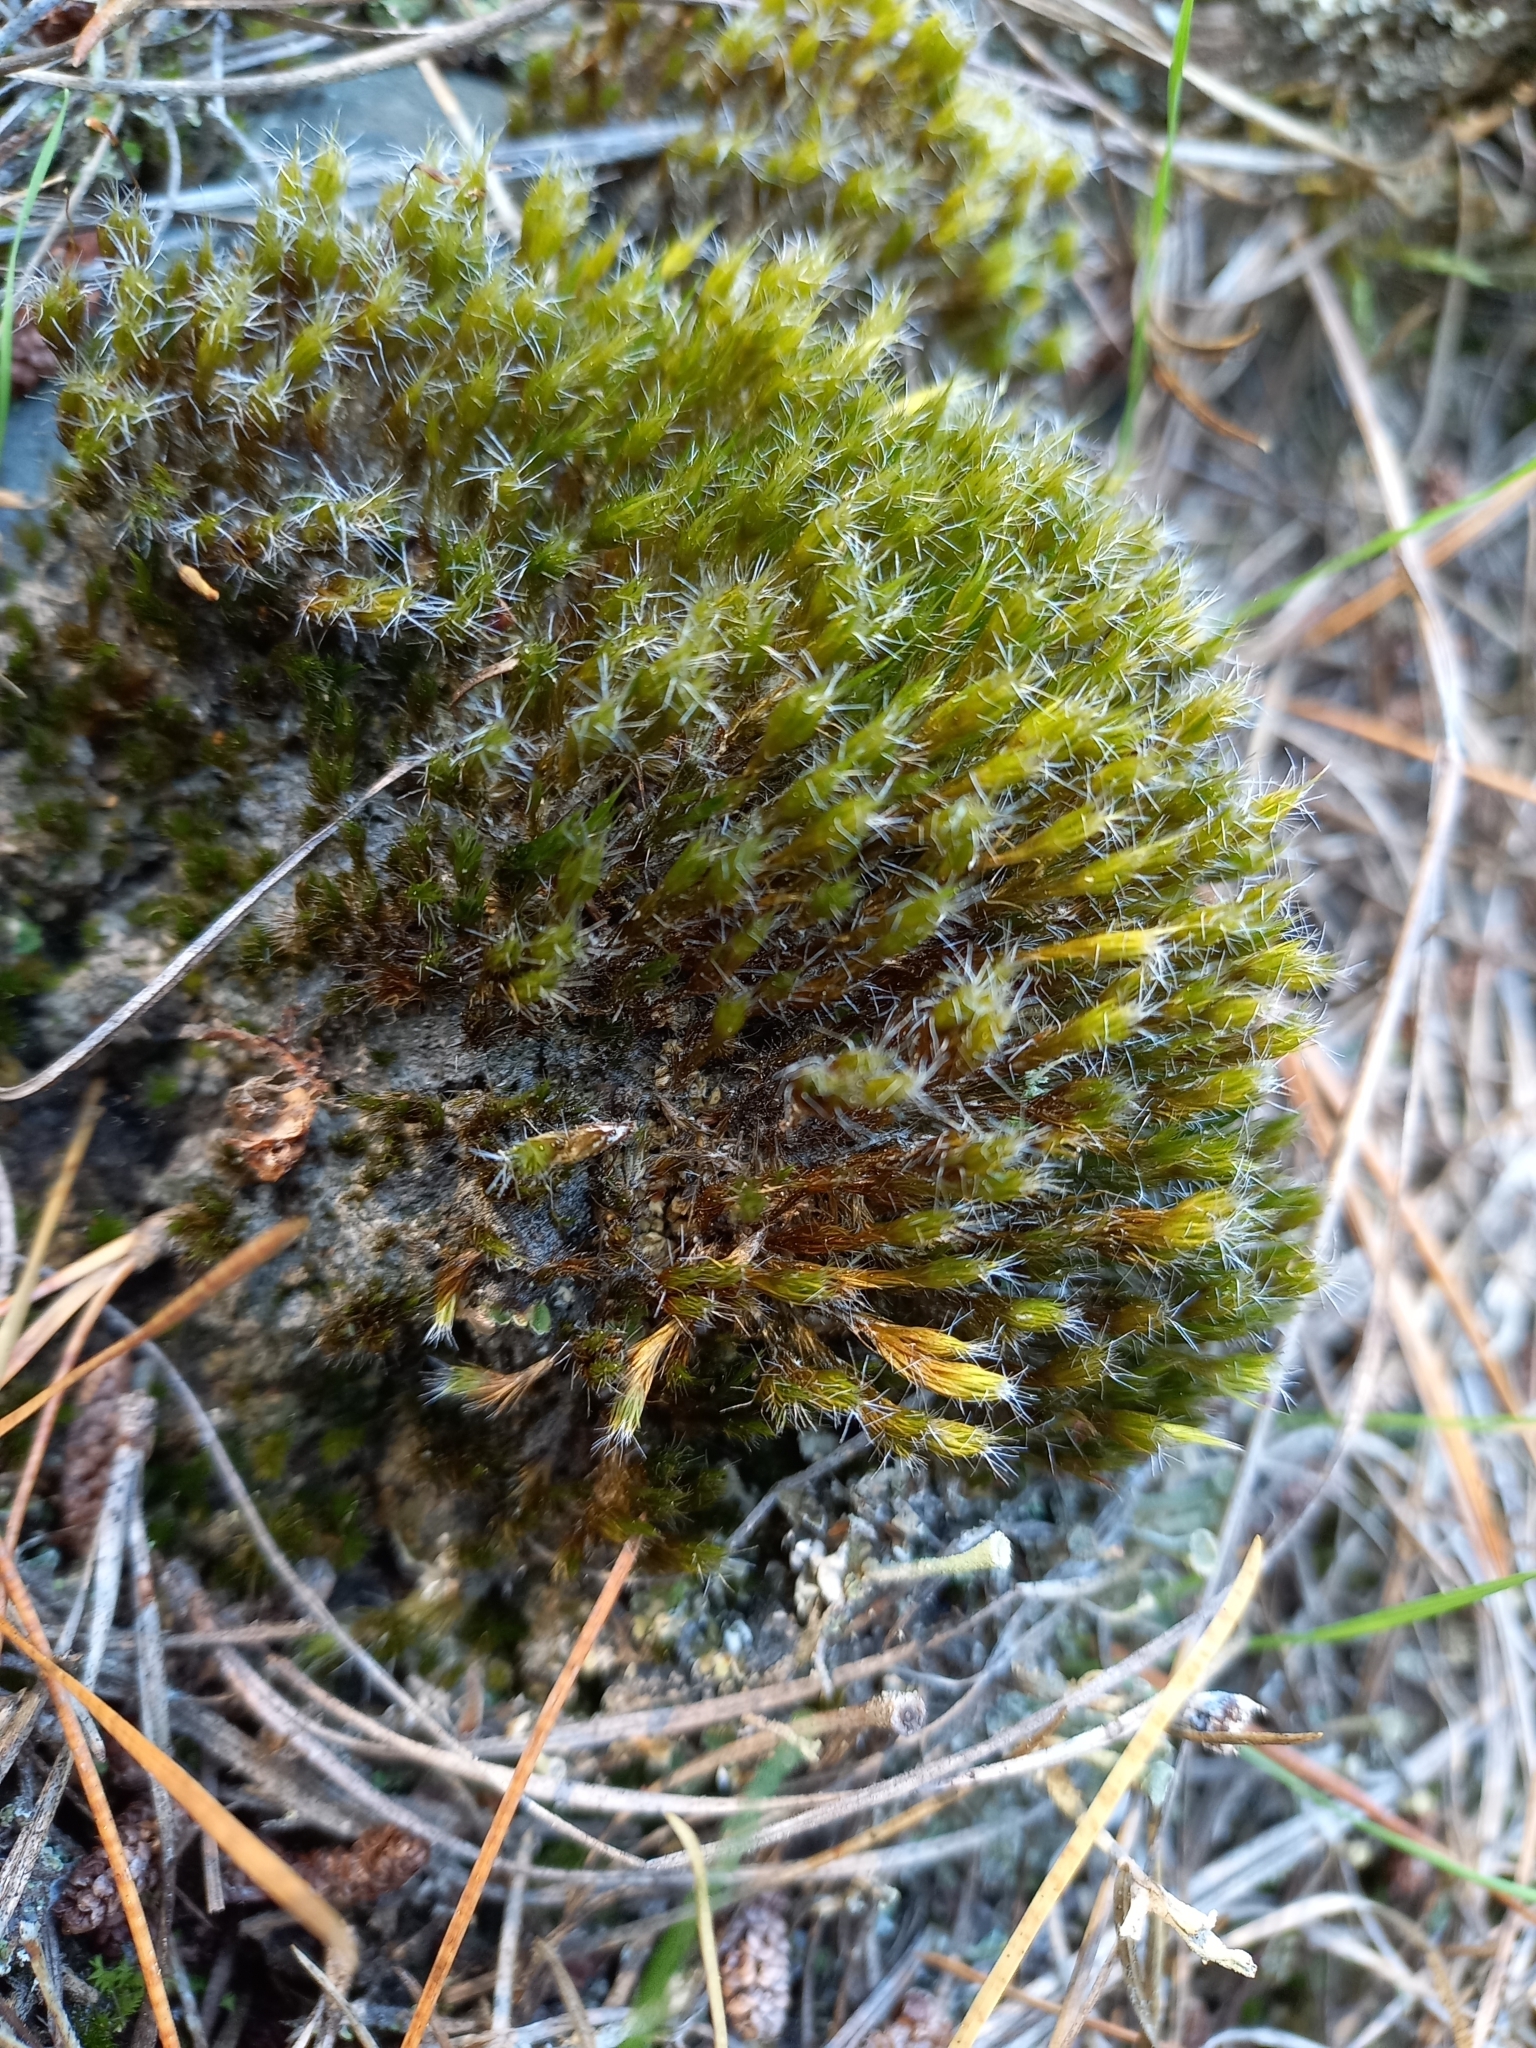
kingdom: Plantae
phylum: Bryophyta
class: Bryopsida
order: Dicranales
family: Leucobryaceae
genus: Campylopus
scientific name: Campylopus introflexus
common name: Heath star moss
